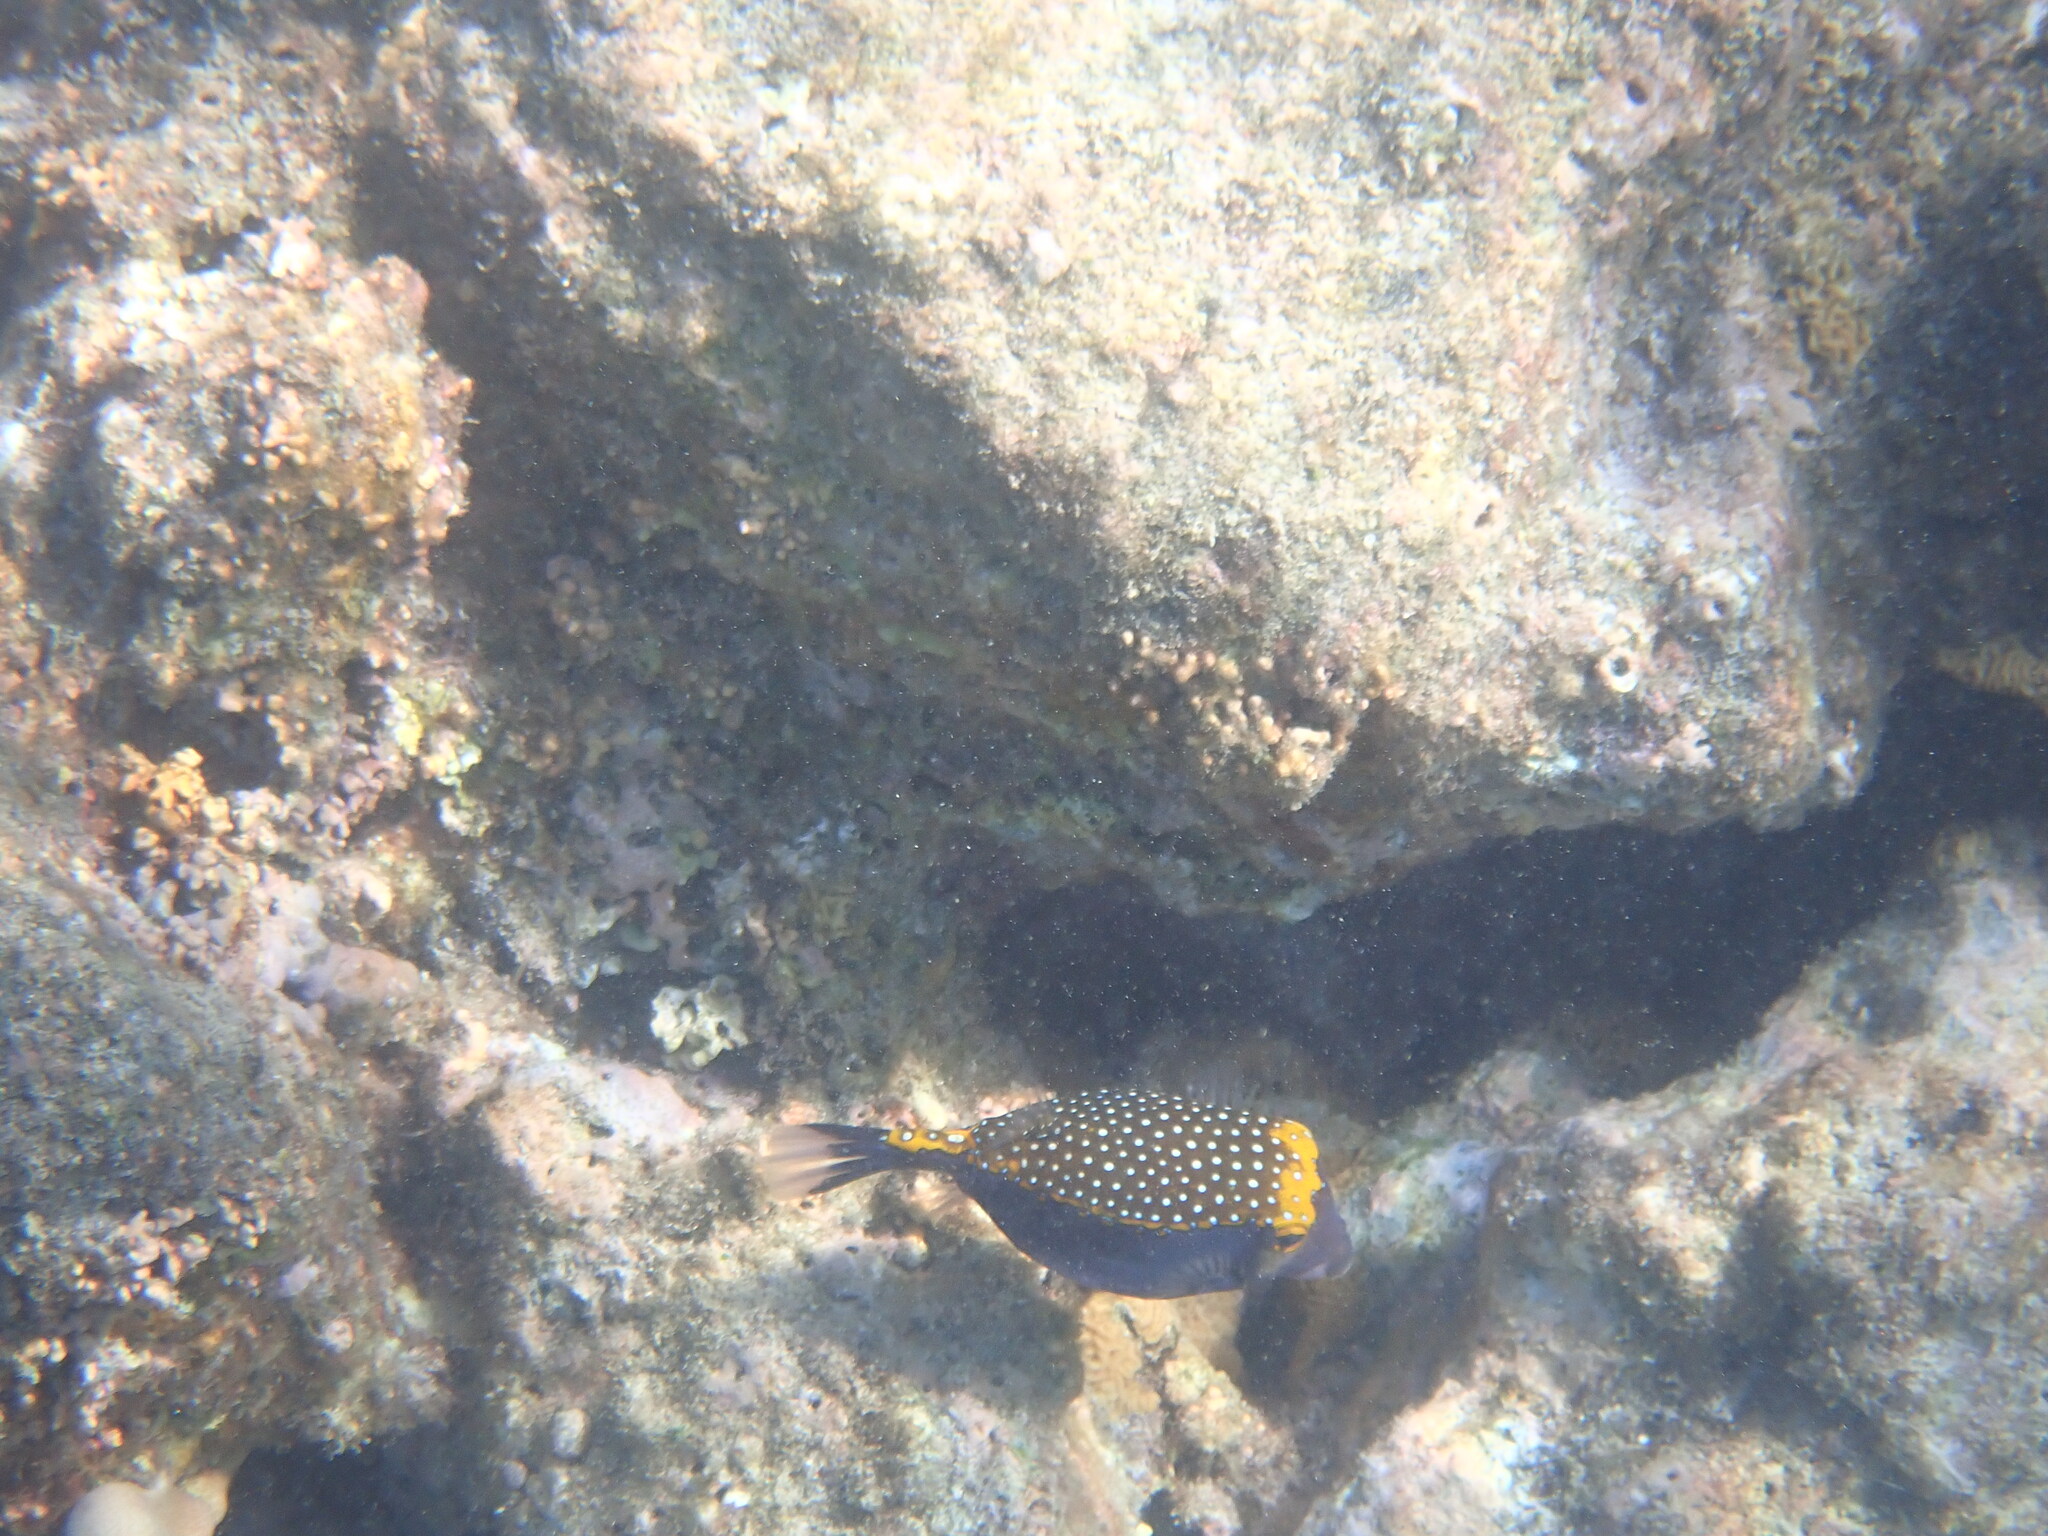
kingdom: Animalia
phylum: Chordata
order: Tetraodontiformes
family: Ostraciidae
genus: Ostracion
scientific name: Ostracion meleagris
